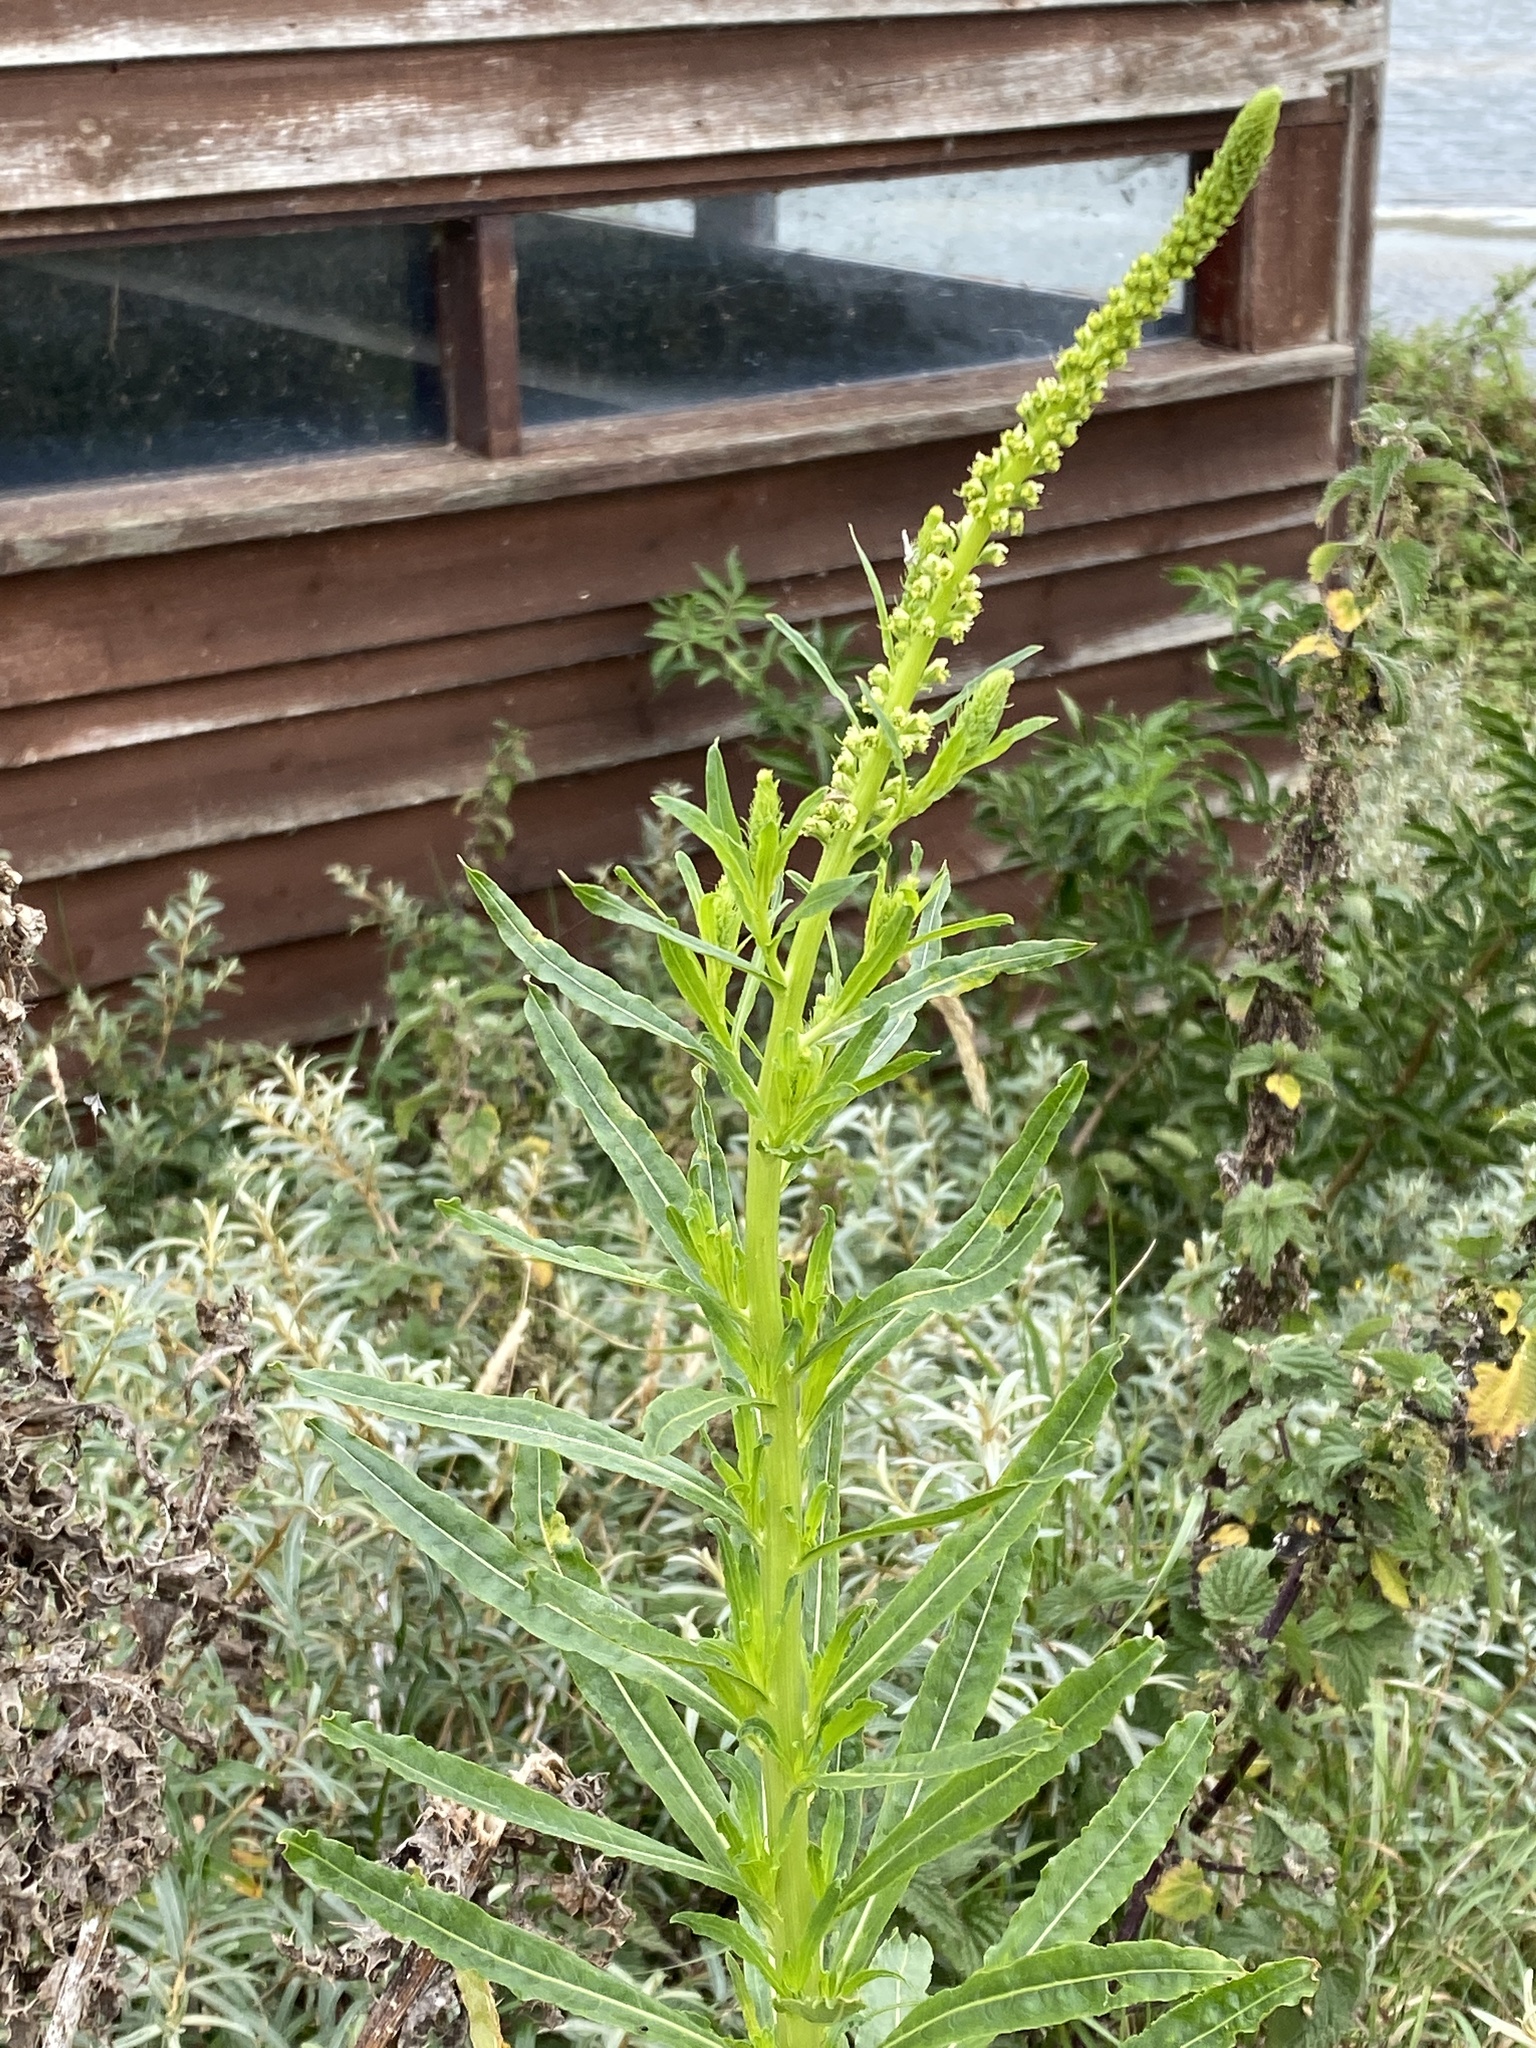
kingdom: Plantae
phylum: Tracheophyta
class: Magnoliopsida
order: Brassicales
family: Resedaceae
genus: Reseda
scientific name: Reseda luteola
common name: Weld
